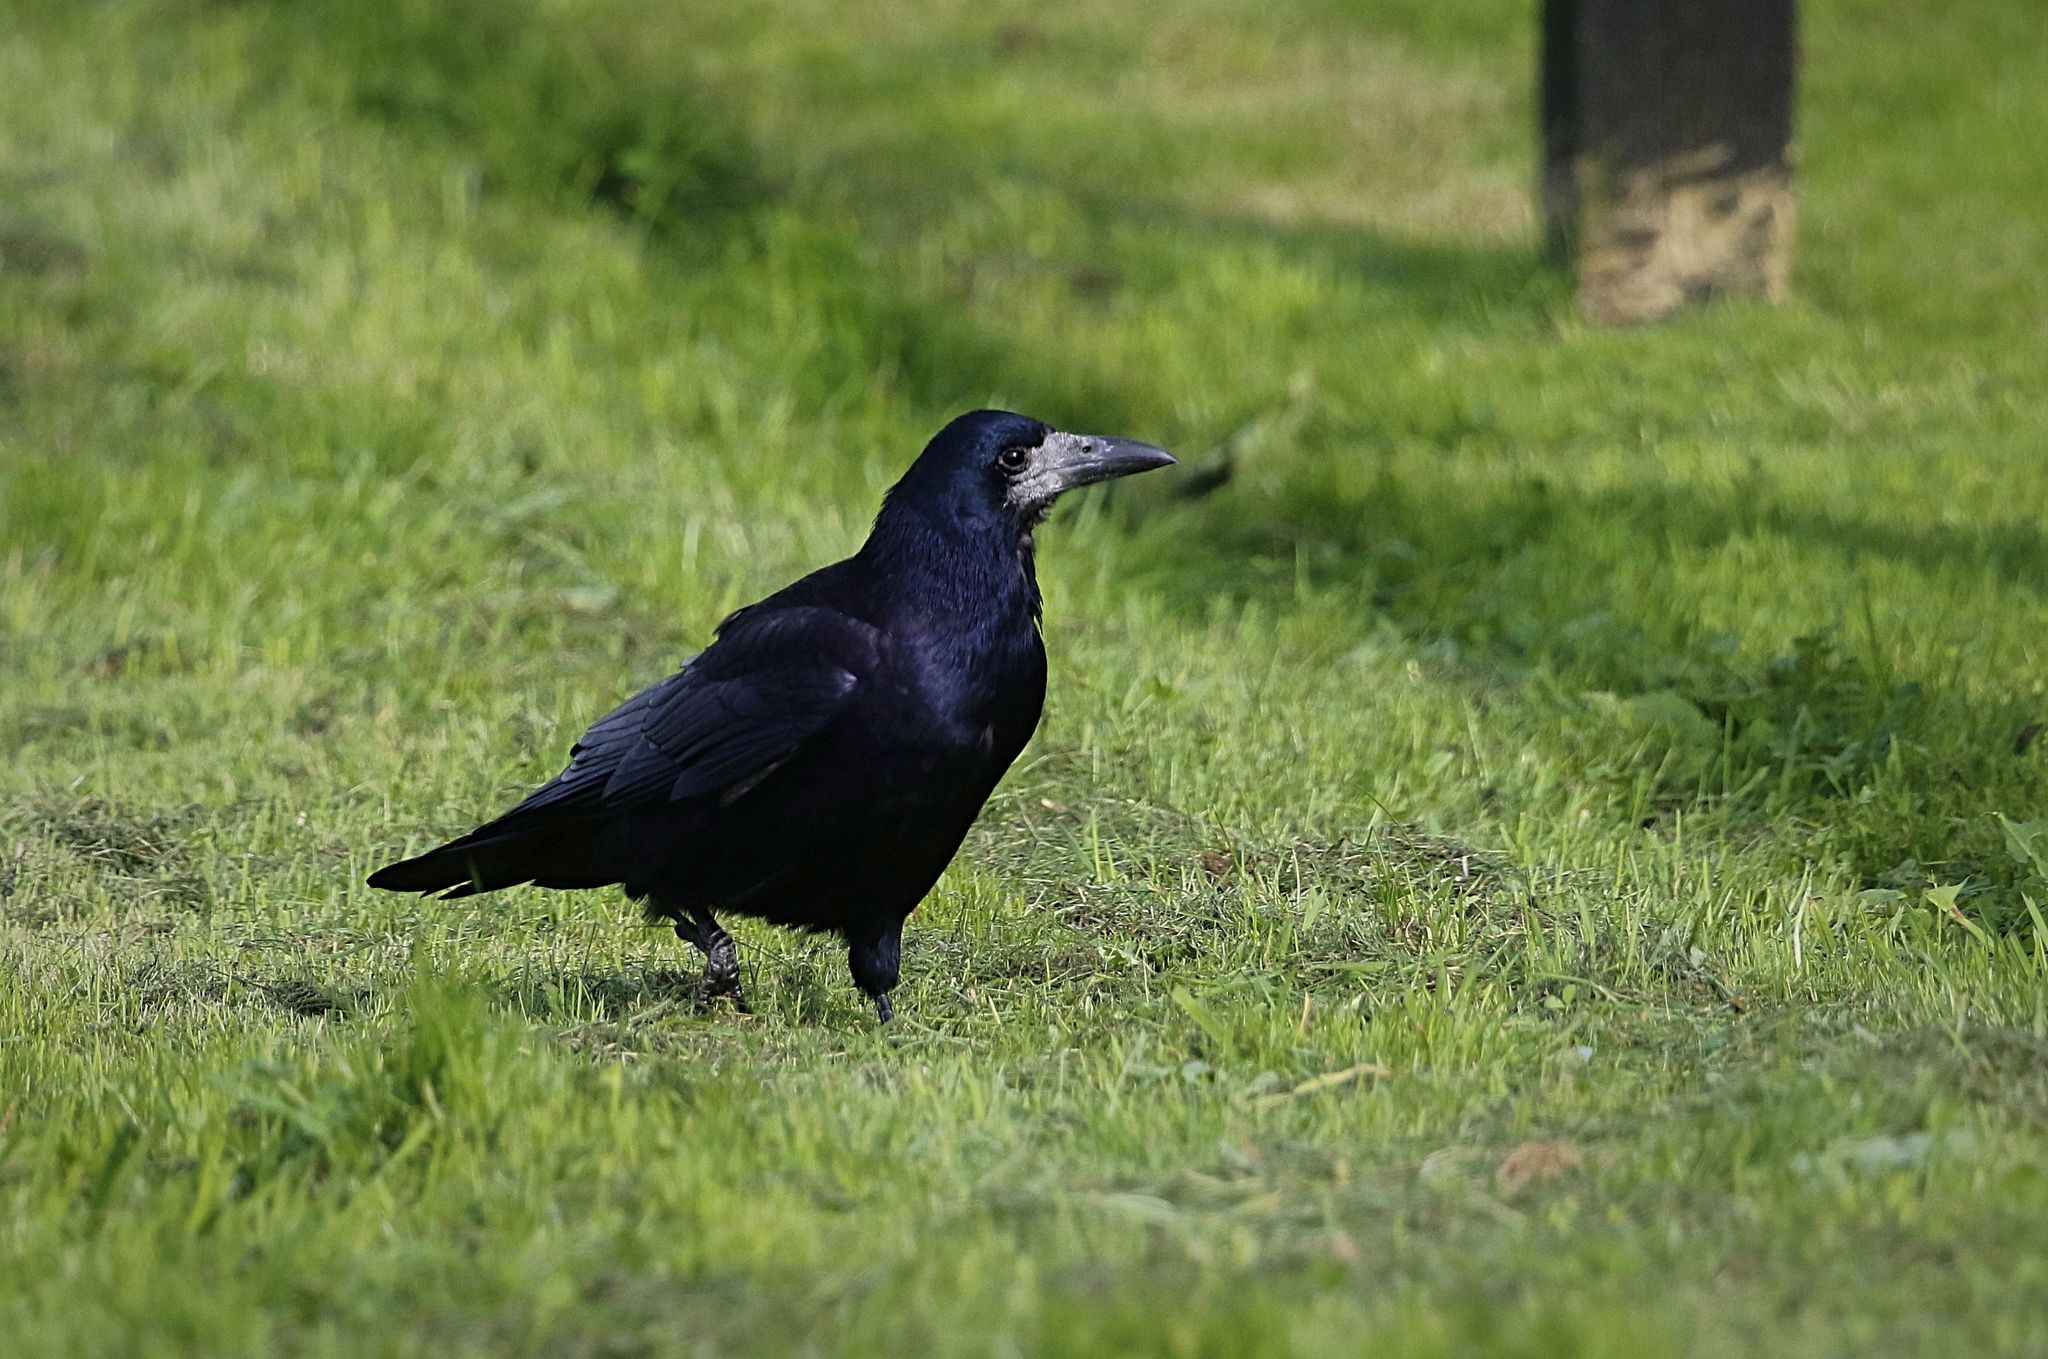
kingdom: Animalia
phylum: Chordata
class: Aves
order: Passeriformes
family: Corvidae
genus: Corvus
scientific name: Corvus frugilegus
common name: Rook
